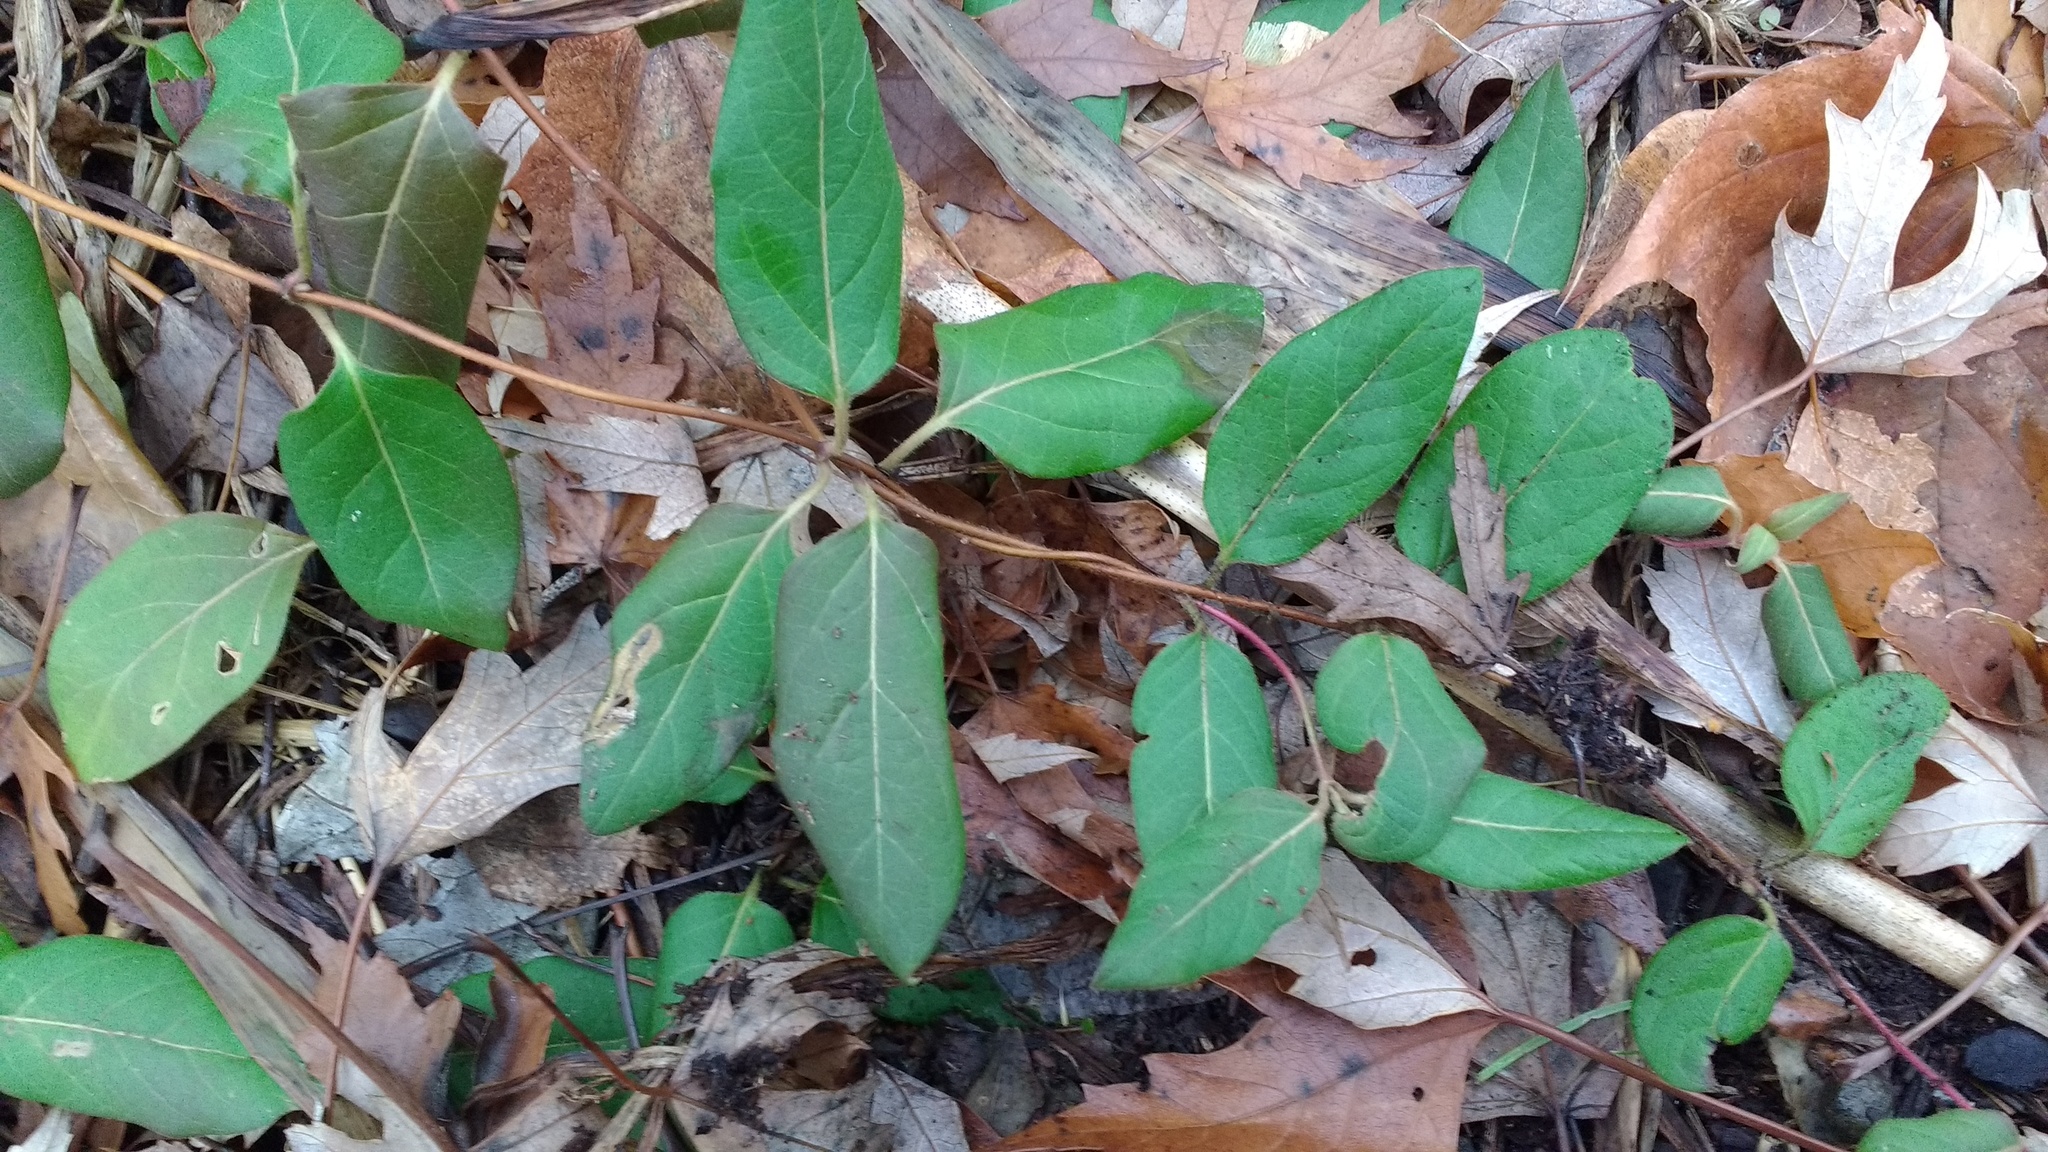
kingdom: Plantae
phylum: Tracheophyta
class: Magnoliopsida
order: Dipsacales
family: Caprifoliaceae
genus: Lonicera
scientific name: Lonicera japonica
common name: Japanese honeysuckle
